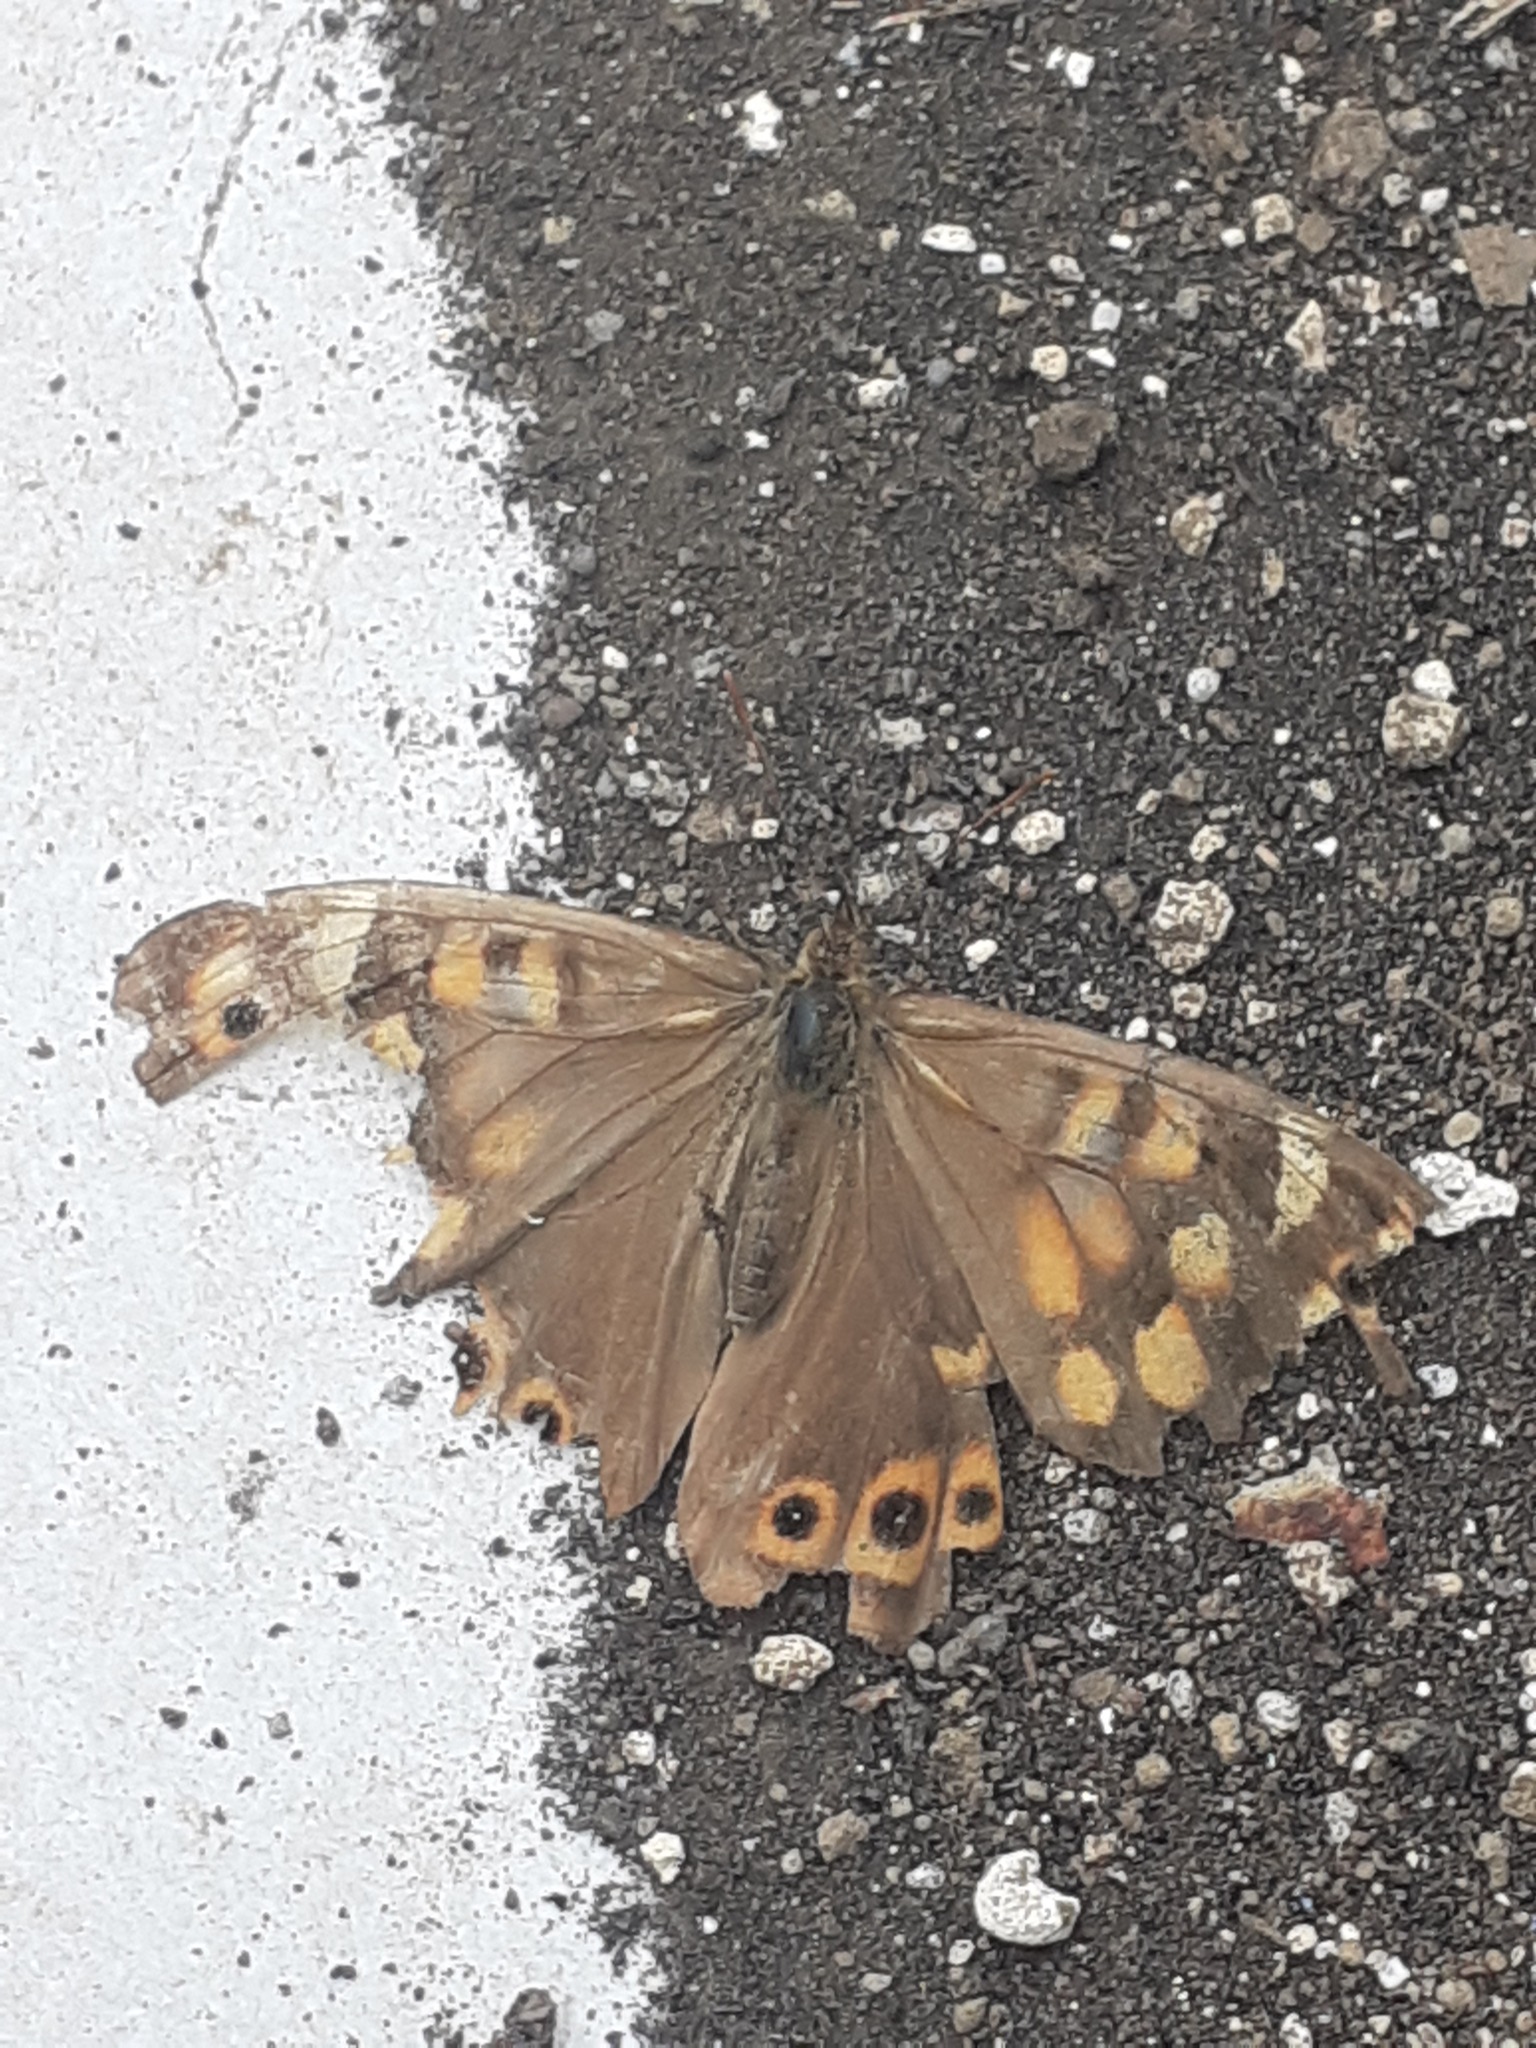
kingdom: Animalia
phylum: Arthropoda
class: Insecta
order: Lepidoptera
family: Nymphalidae
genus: Pararge
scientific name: Pararge aegeria
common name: Speckled wood
